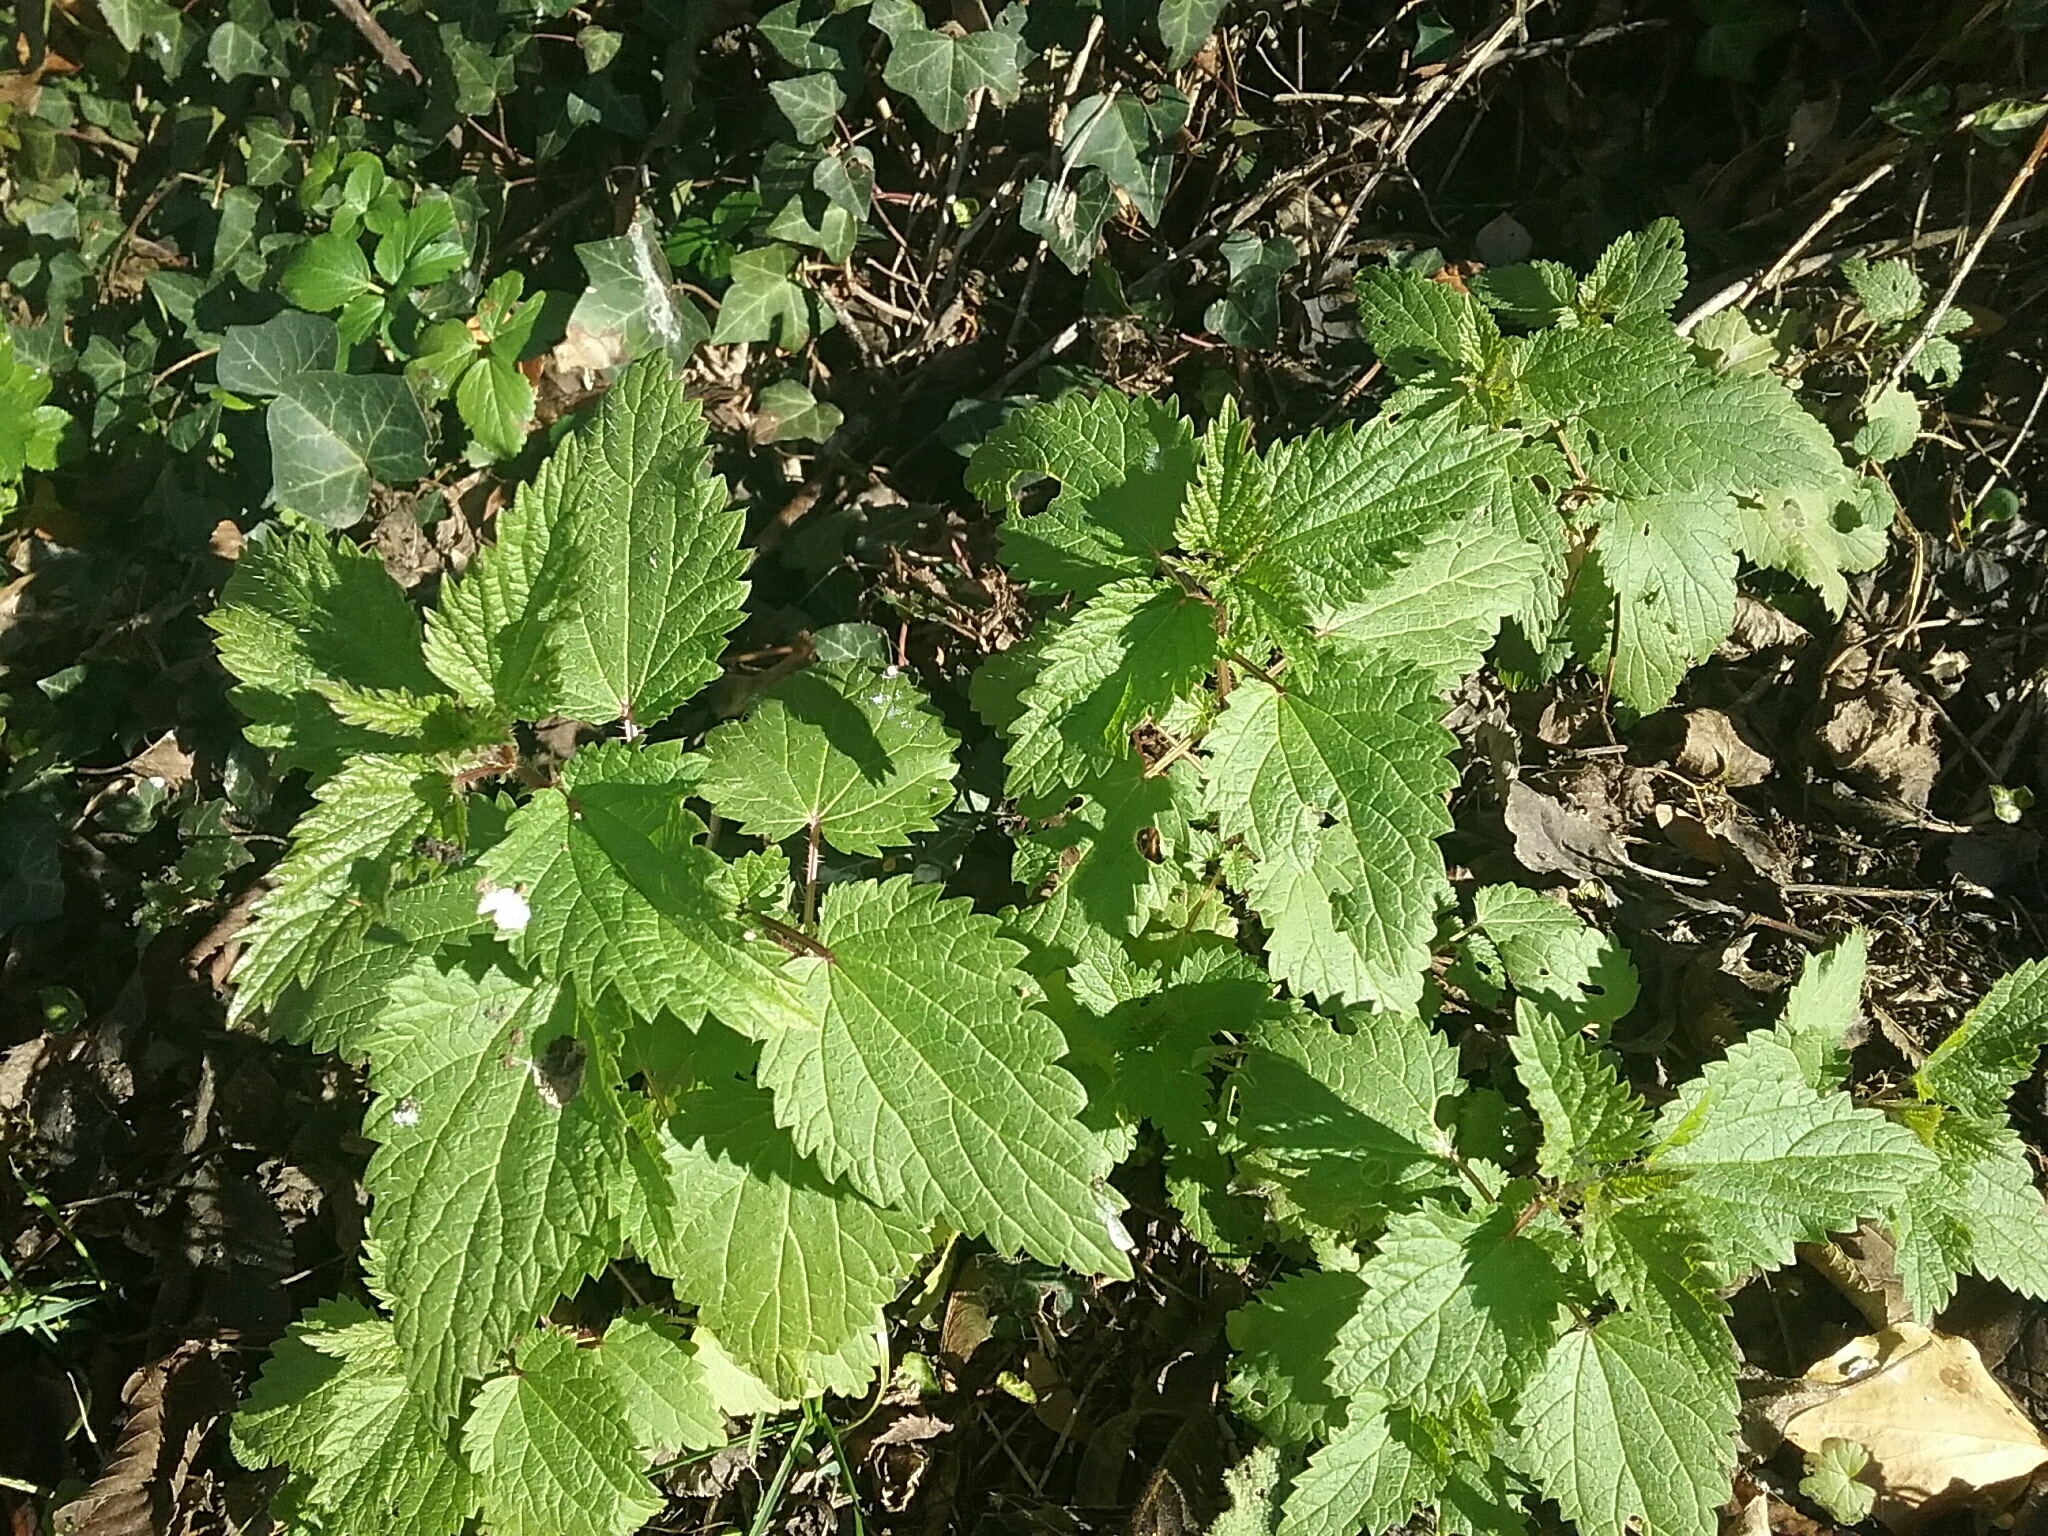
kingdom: Plantae
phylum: Tracheophyta
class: Magnoliopsida
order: Rosales
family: Urticaceae
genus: Urtica
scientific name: Urtica dioica
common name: Common nettle
